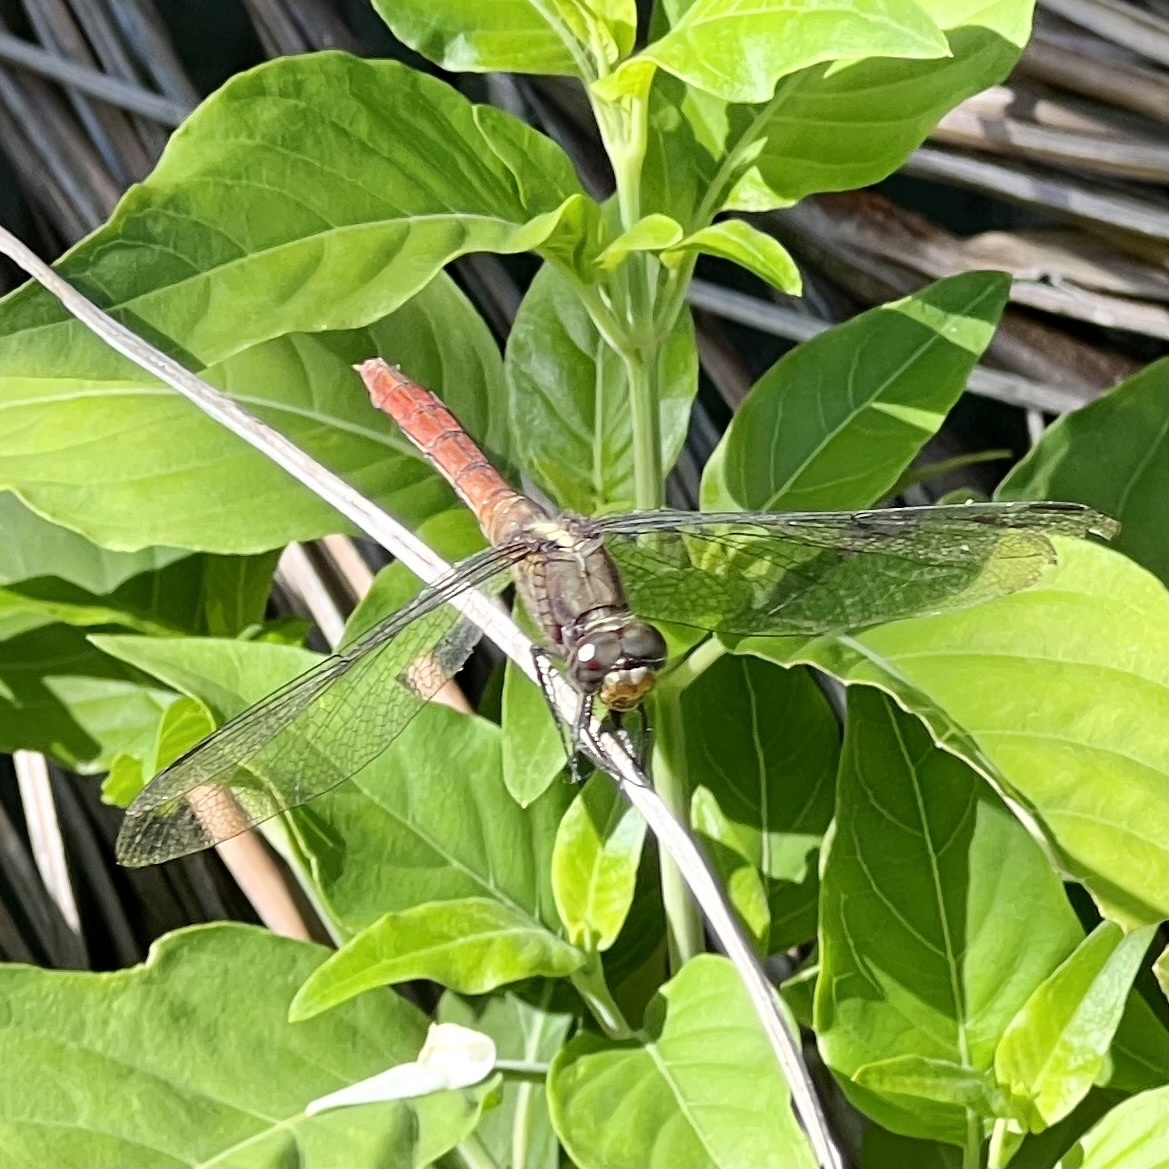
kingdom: Animalia
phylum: Arthropoda
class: Insecta
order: Odonata
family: Libellulidae
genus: Orthetrum
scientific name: Orthetrum villosovittatum
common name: Firery skimmer
